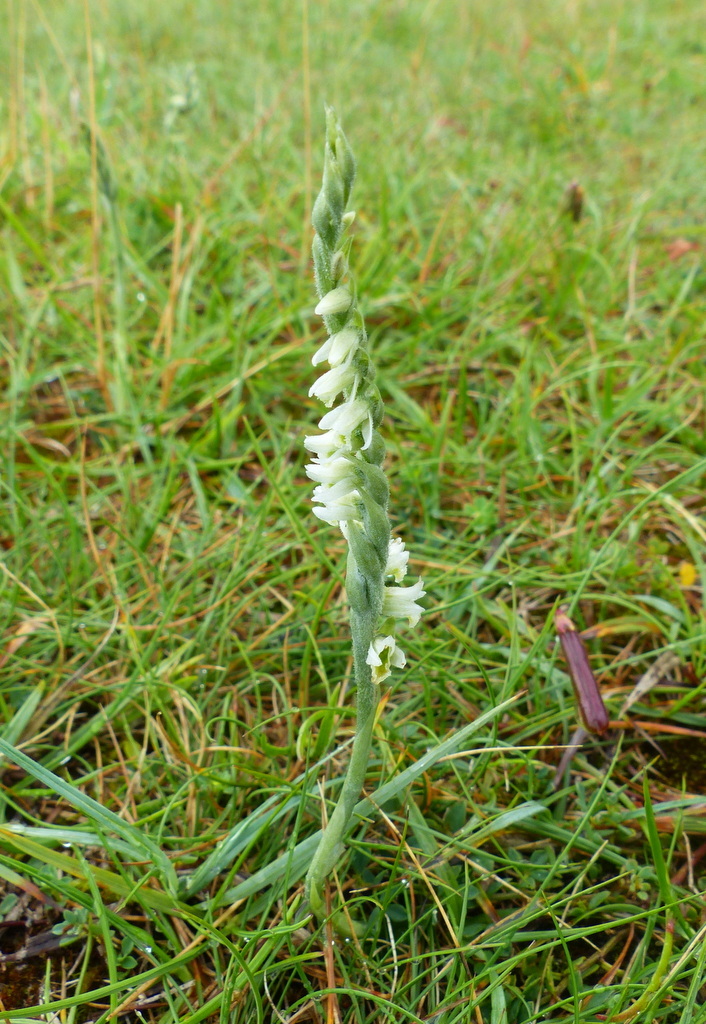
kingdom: Plantae
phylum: Tracheophyta
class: Liliopsida
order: Asparagales
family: Orchidaceae
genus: Spiranthes
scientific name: Spiranthes spiralis
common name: Autumn lady's-tresses
